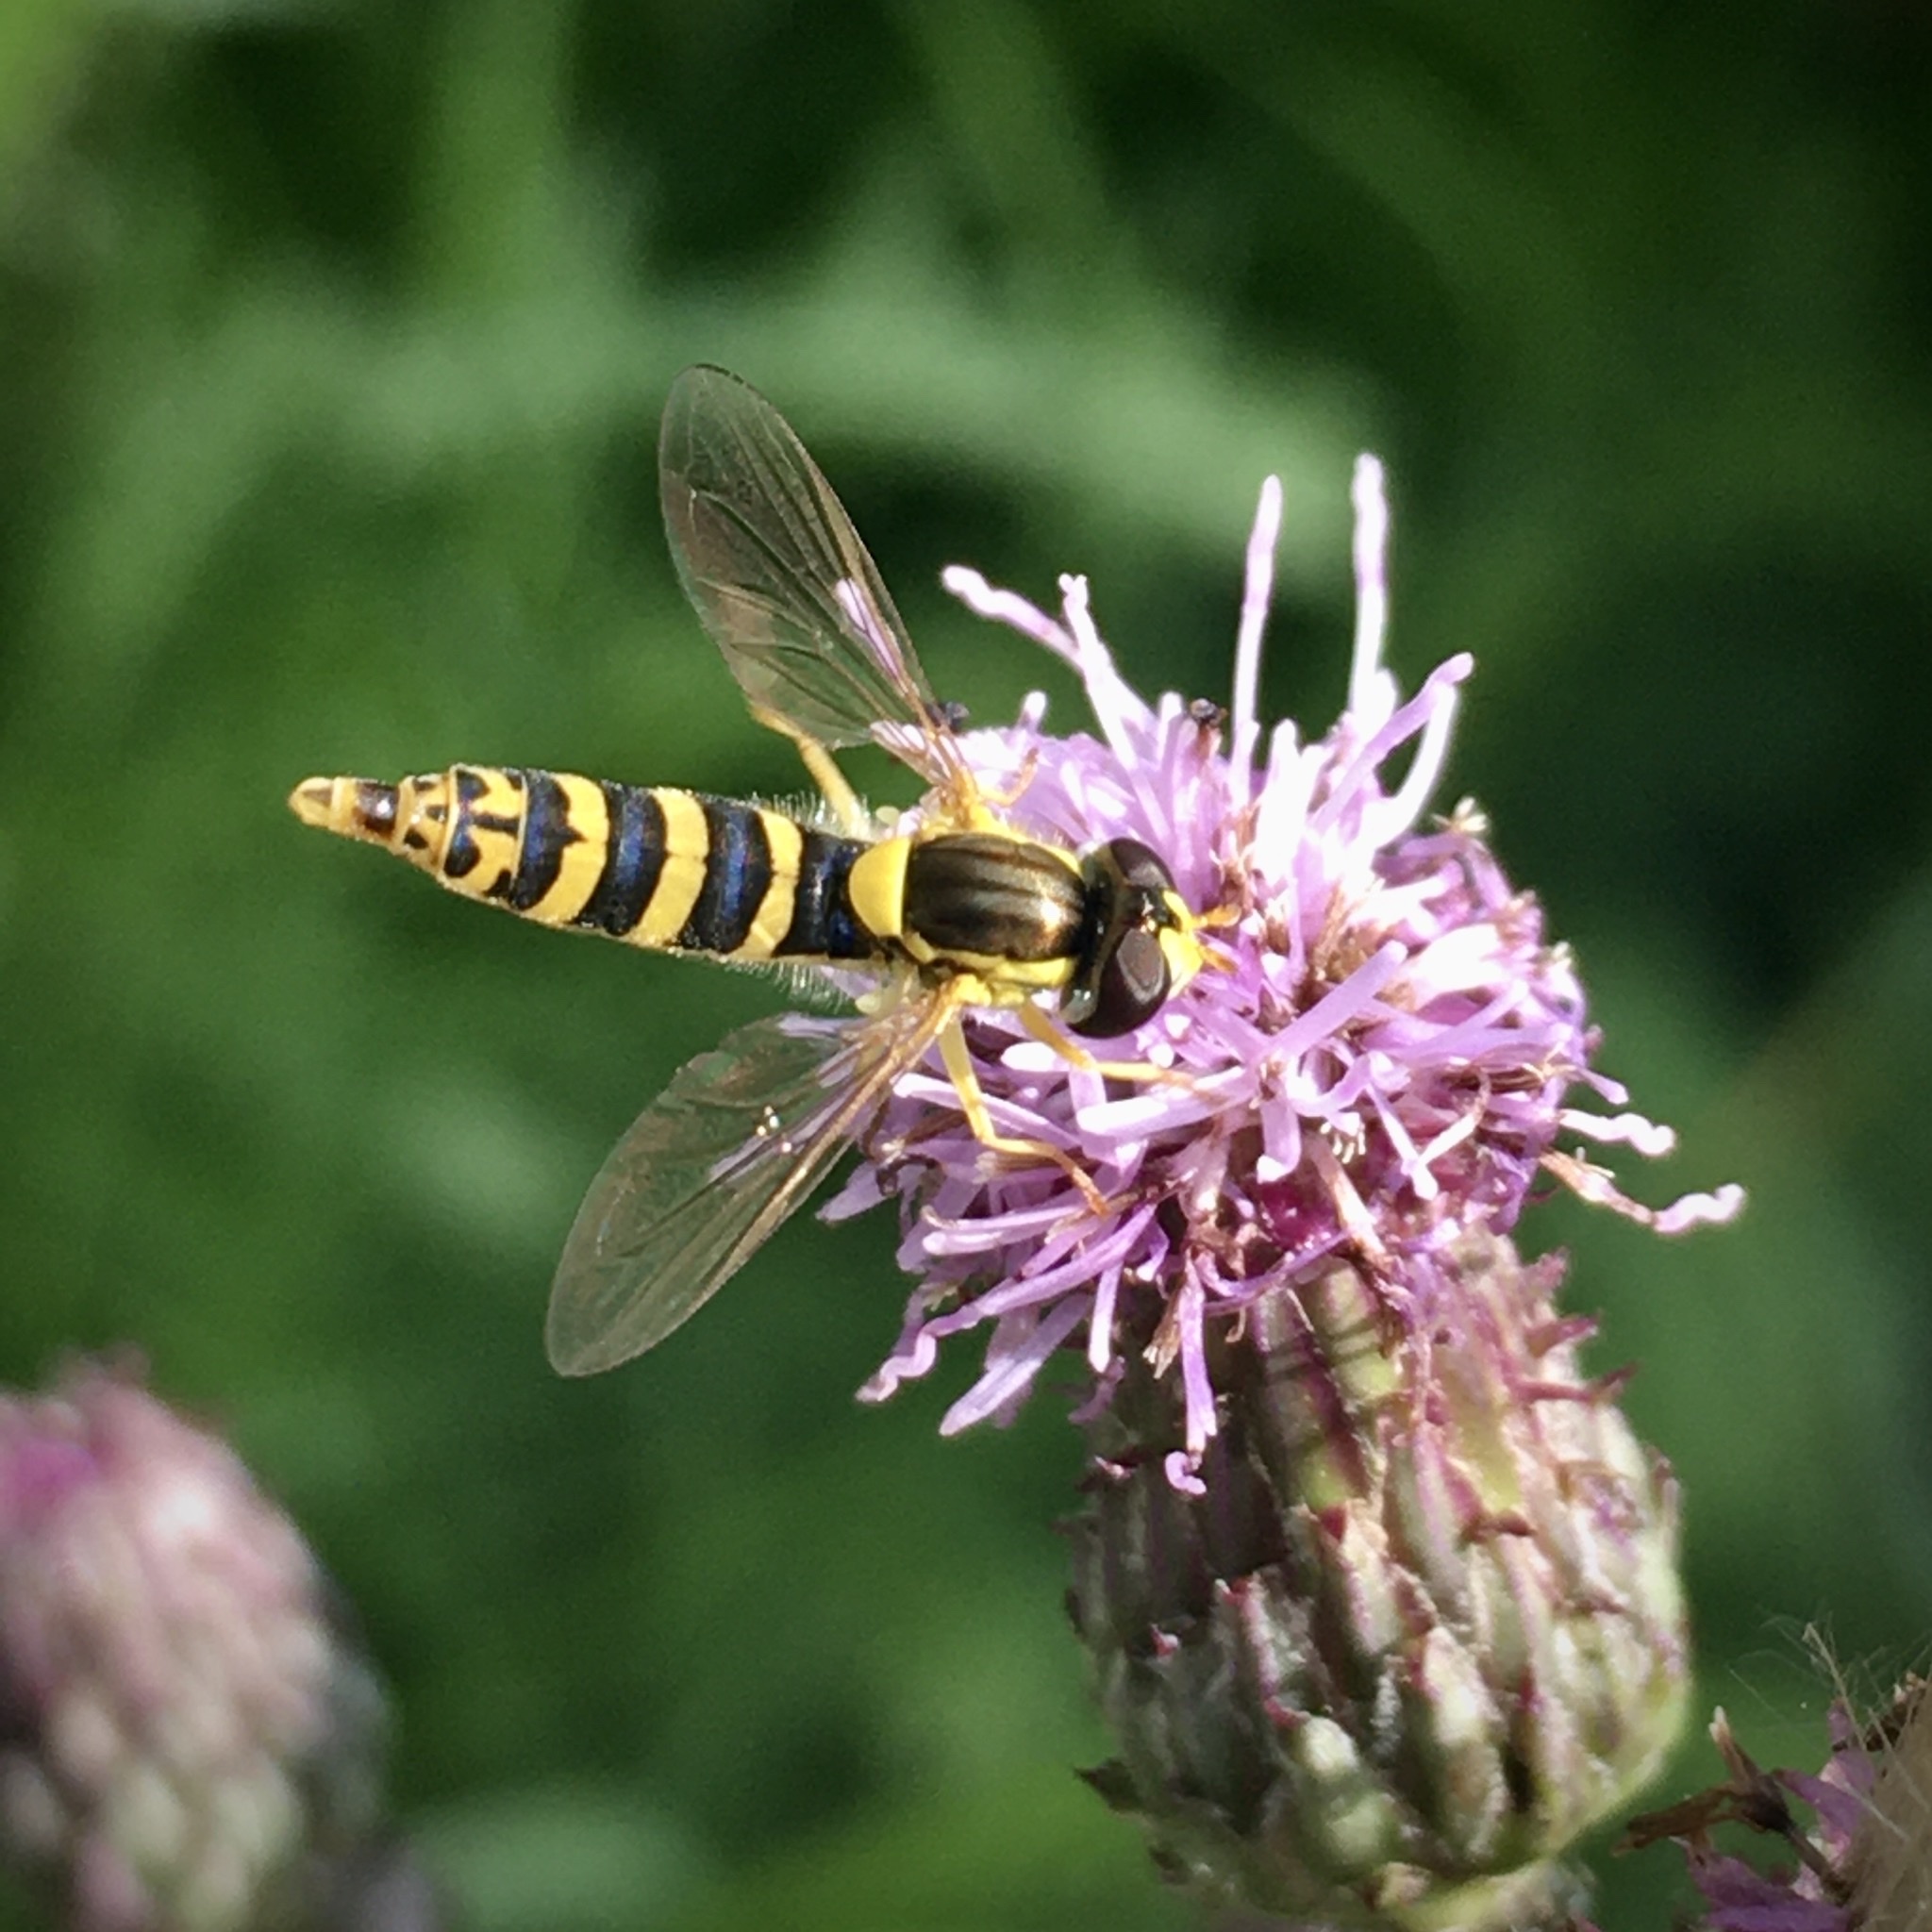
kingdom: Animalia
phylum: Arthropoda
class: Insecta
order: Diptera
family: Syrphidae
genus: Sphaerophoria
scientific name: Sphaerophoria
